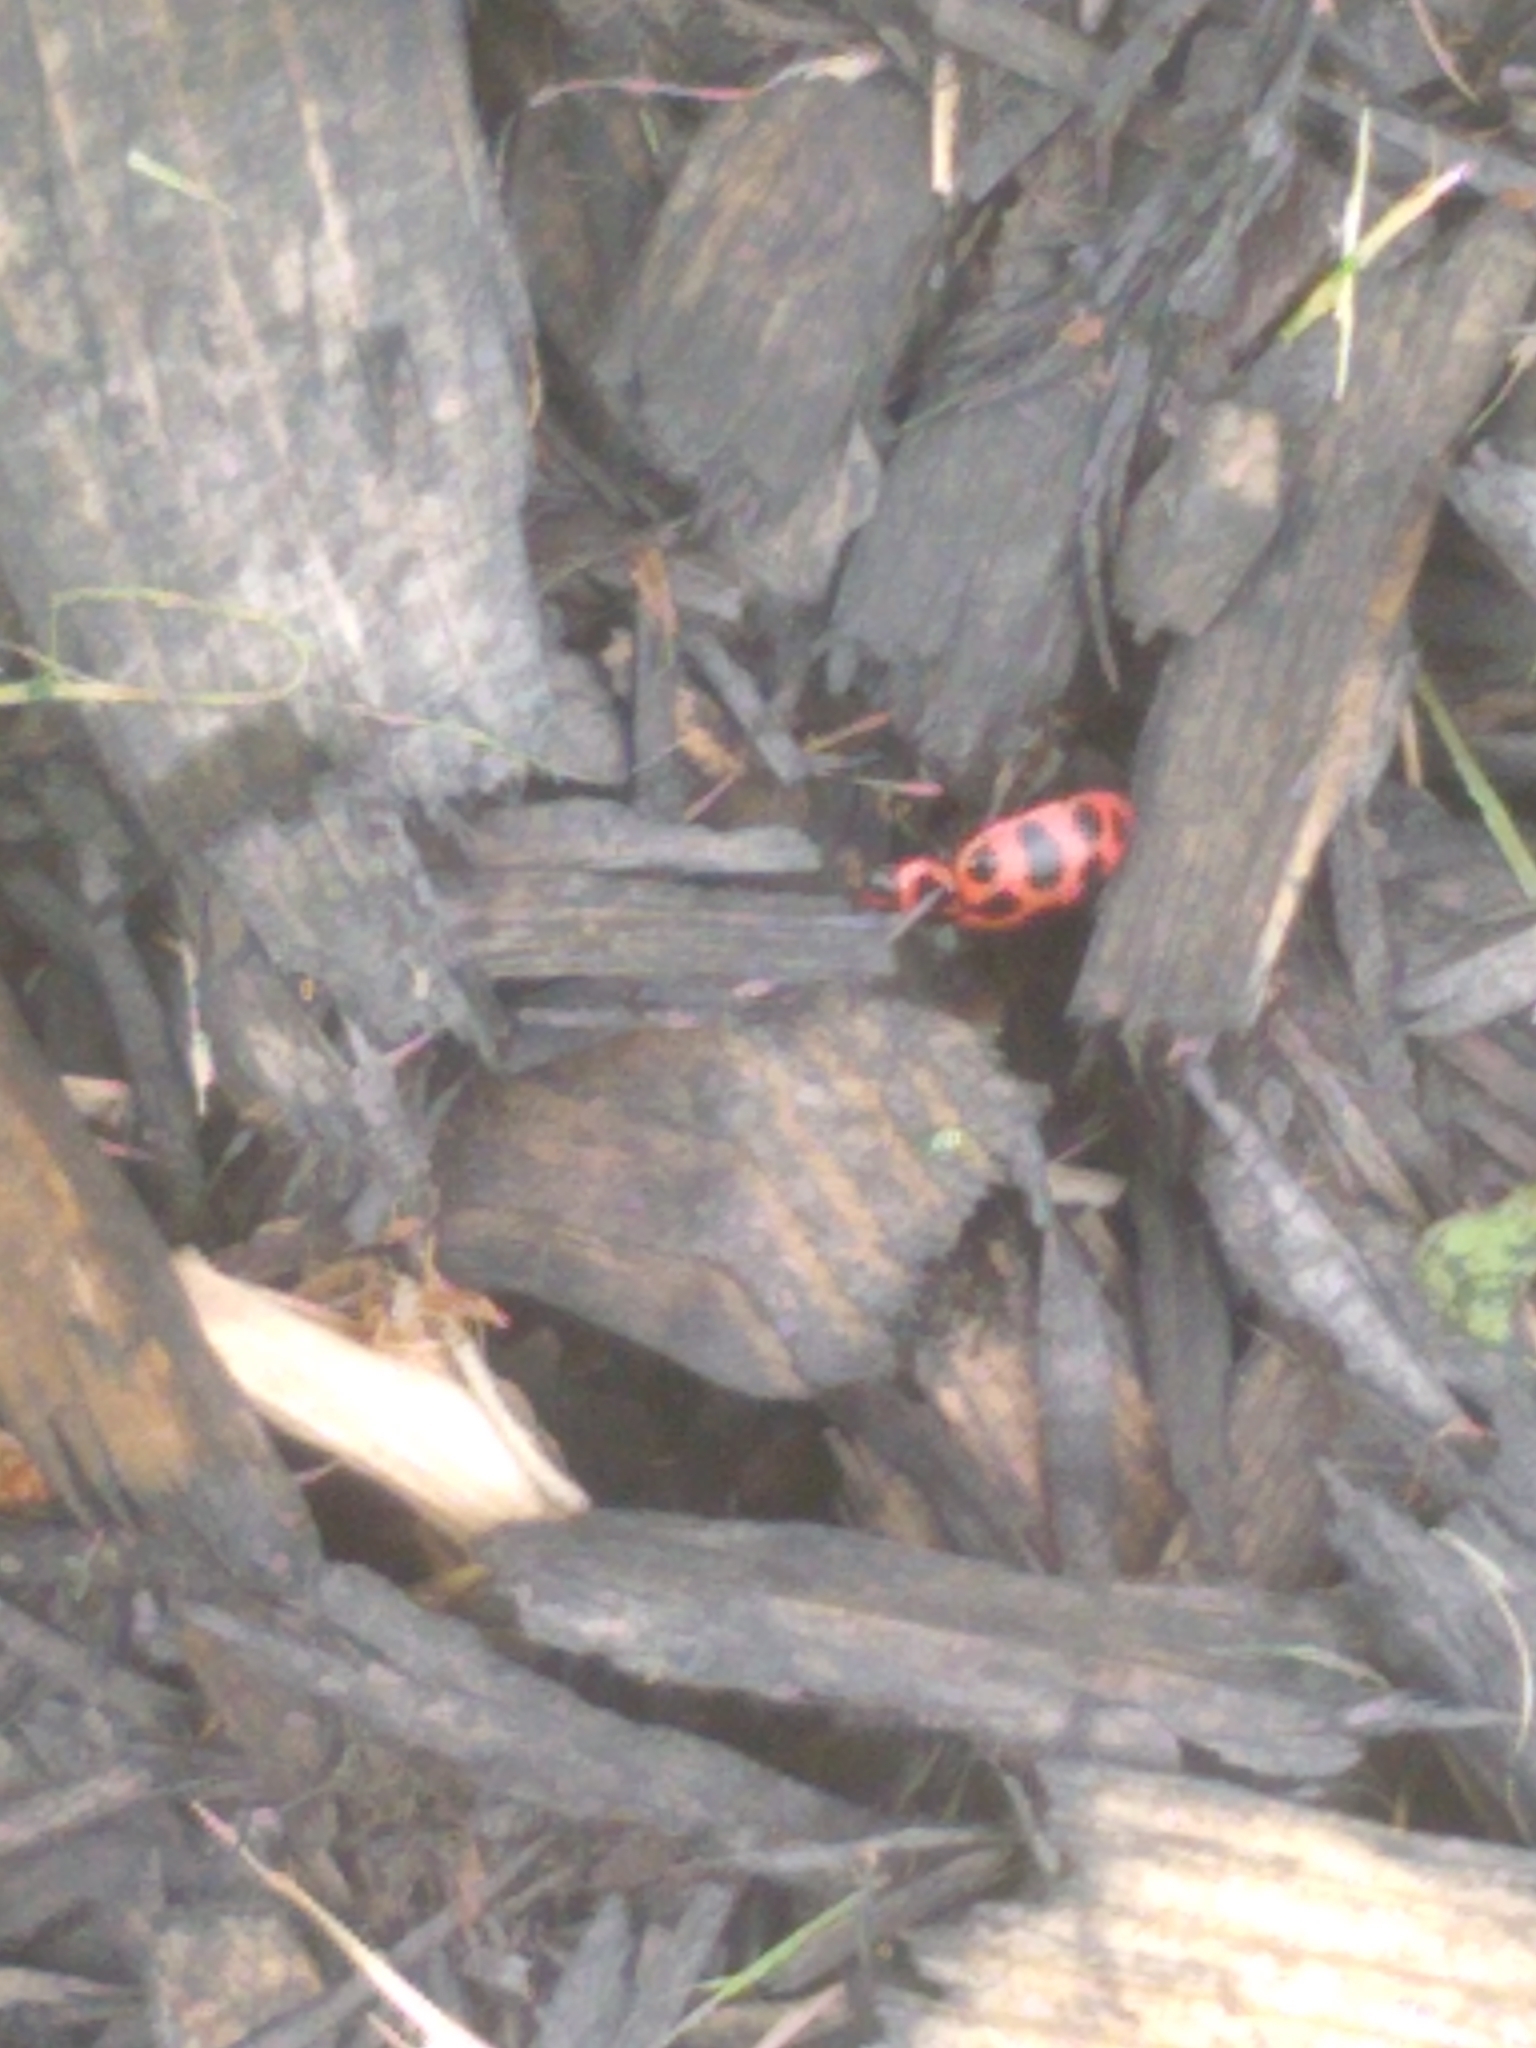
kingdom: Animalia
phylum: Arthropoda
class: Insecta
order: Coleoptera
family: Coccinellidae
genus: Coleomegilla
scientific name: Coleomegilla maculata
